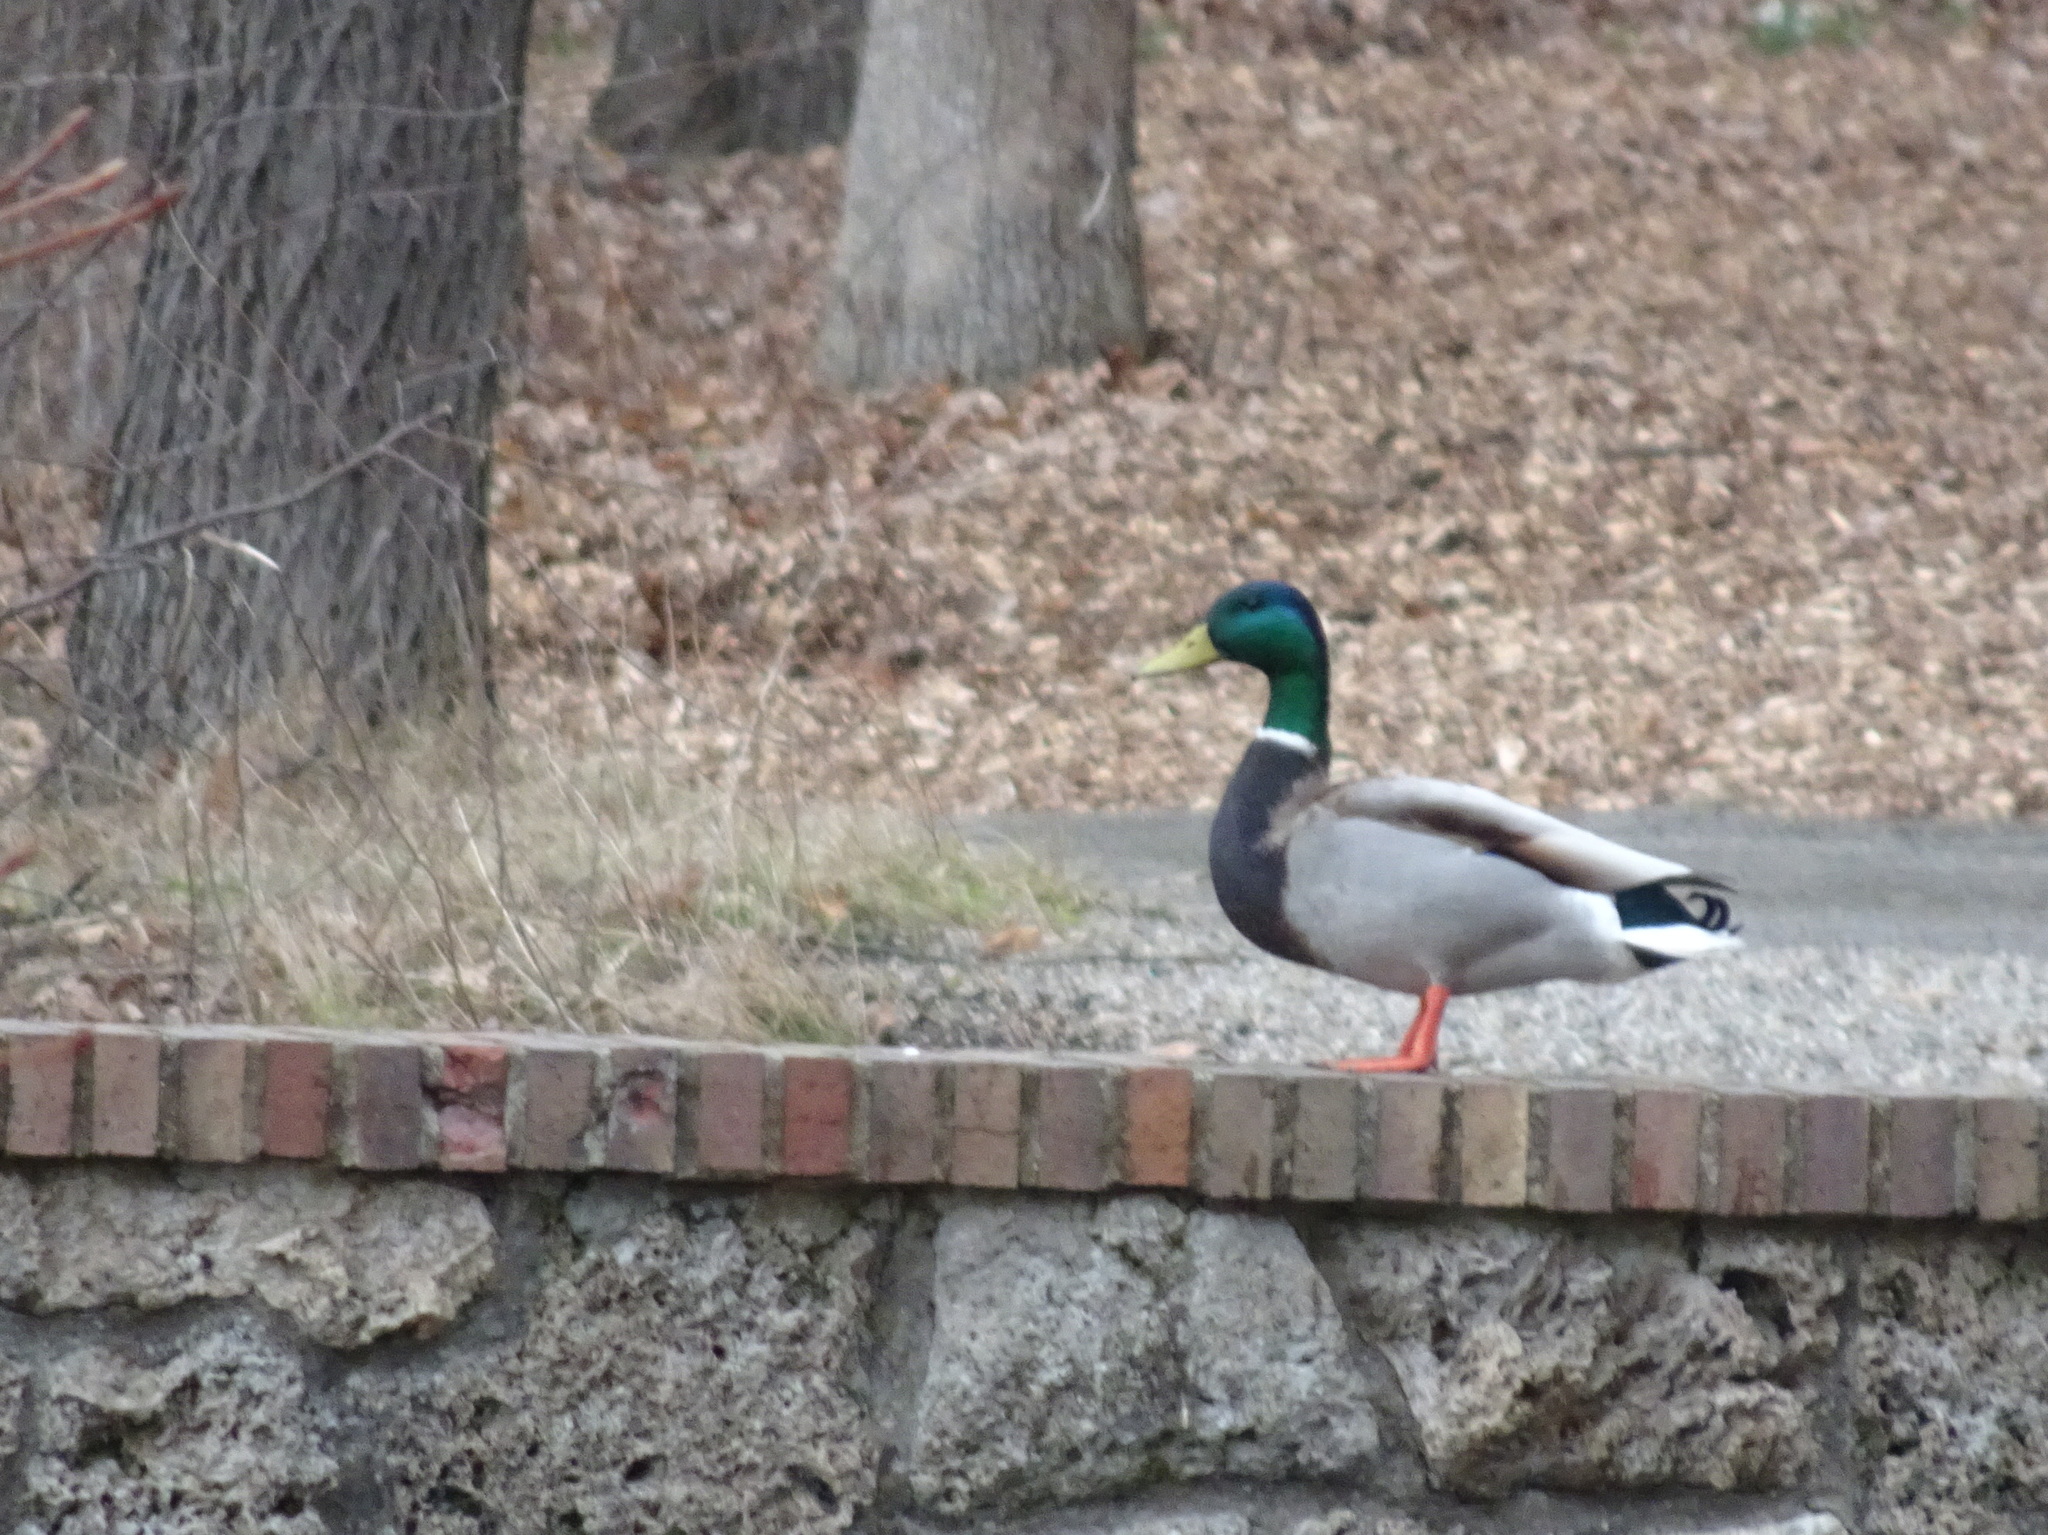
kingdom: Animalia
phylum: Chordata
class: Aves
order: Anseriformes
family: Anatidae
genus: Anas
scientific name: Anas platyrhynchos
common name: Mallard
